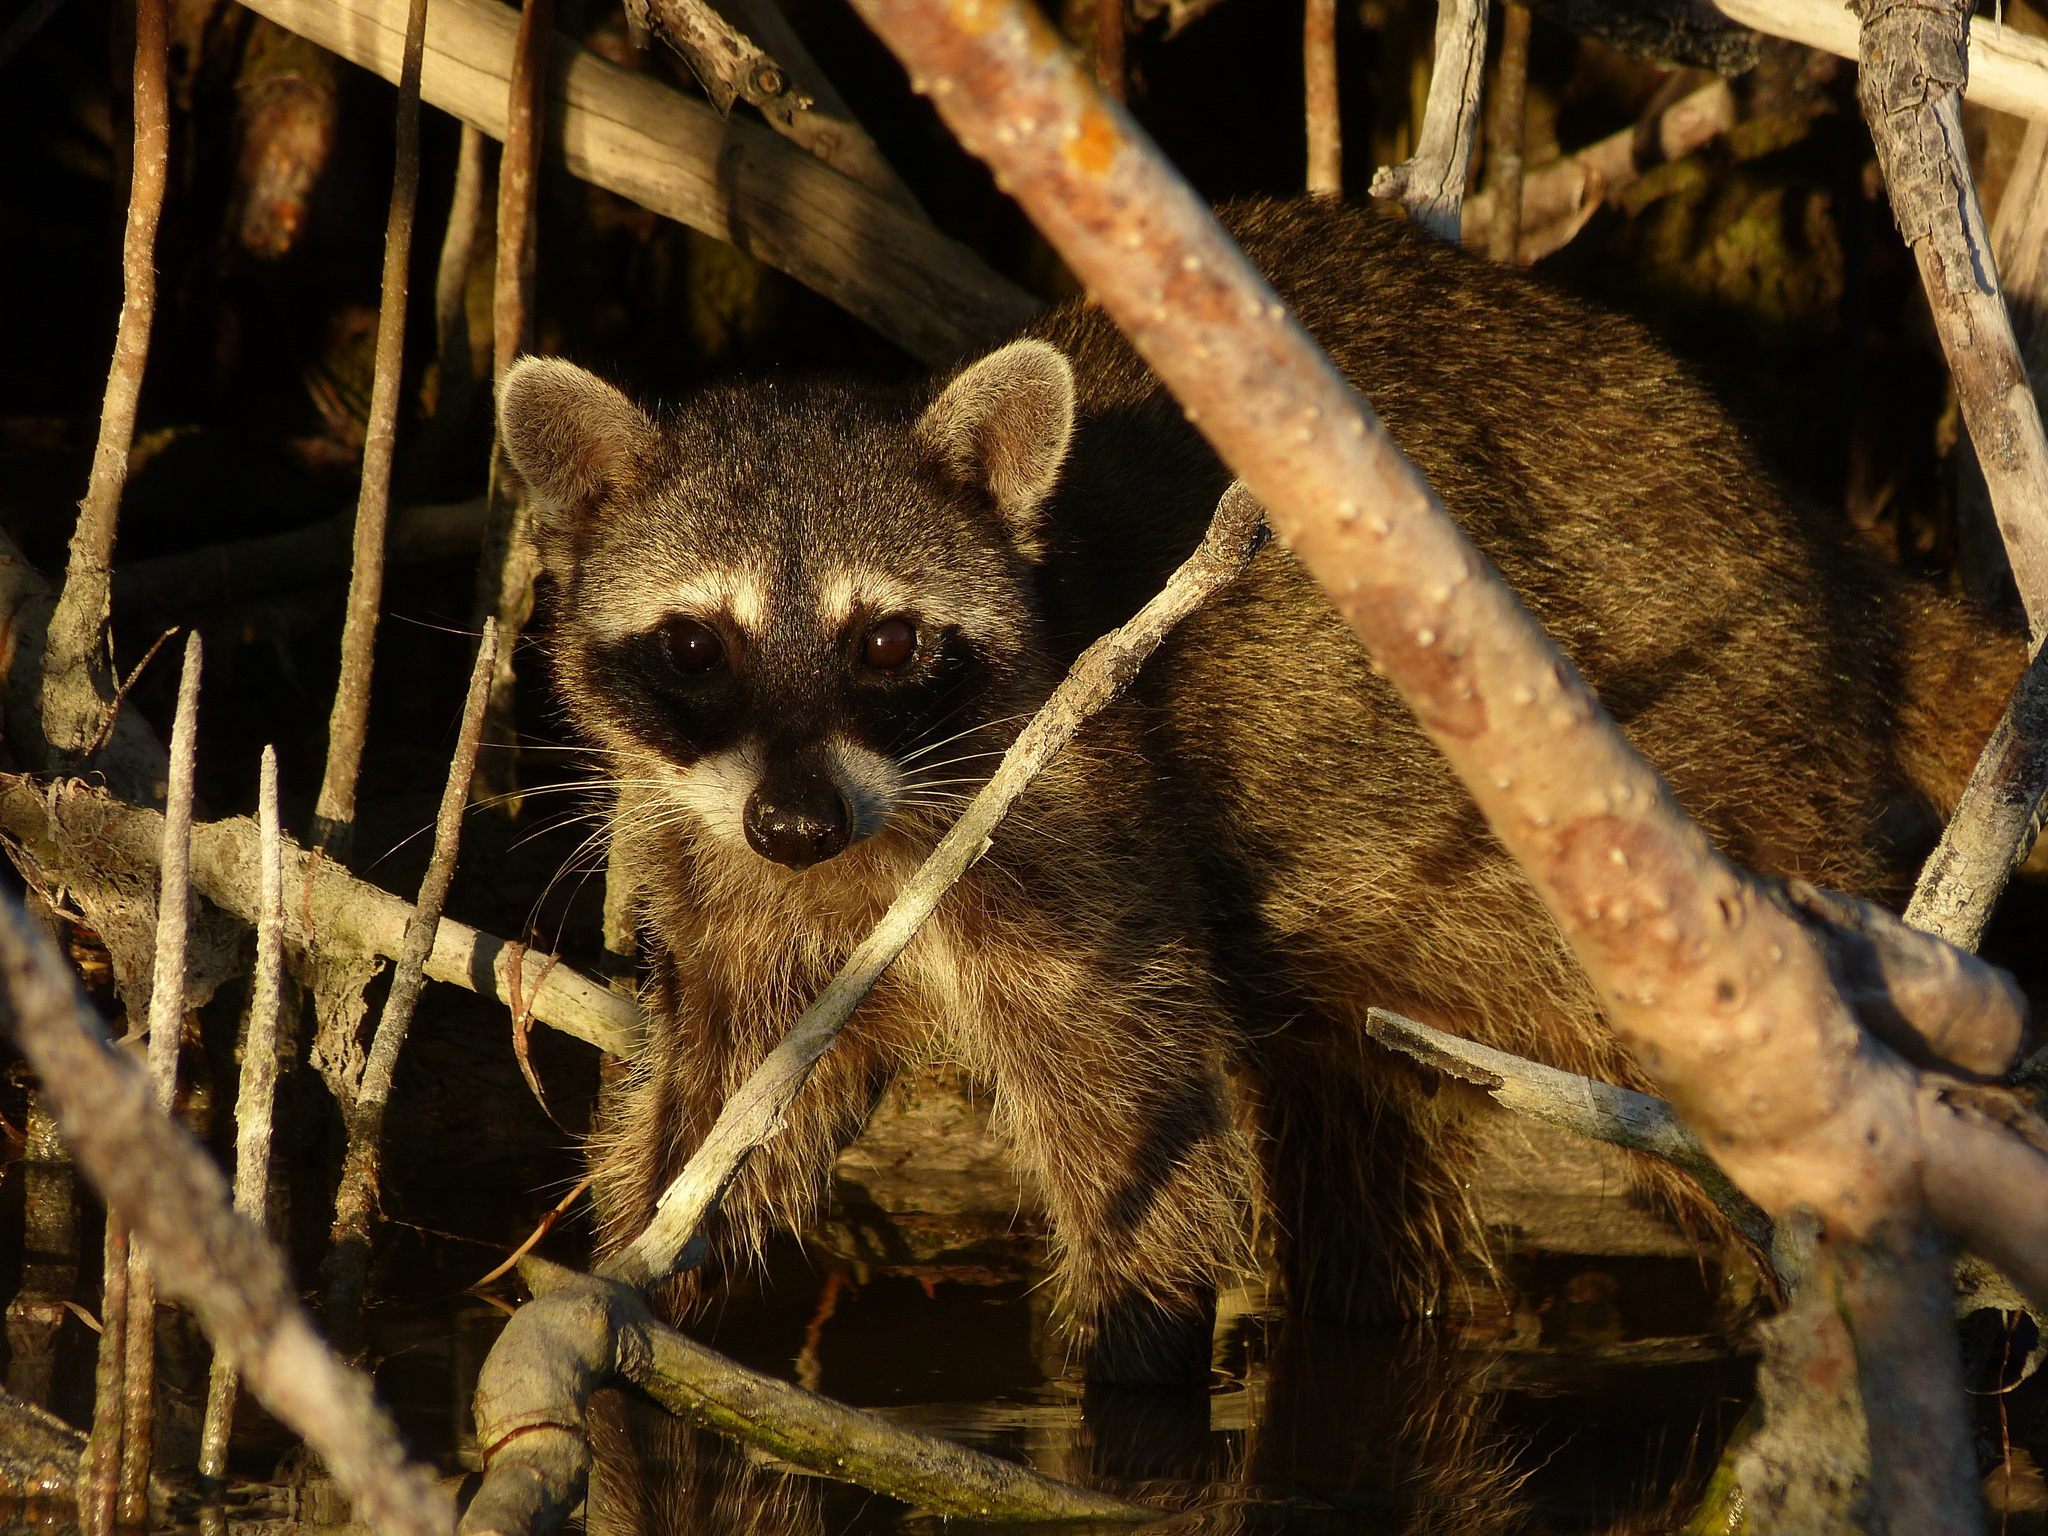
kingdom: Animalia
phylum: Chordata
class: Mammalia
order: Carnivora
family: Procyonidae
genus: Procyon
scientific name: Procyon lotor
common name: Raccoon
